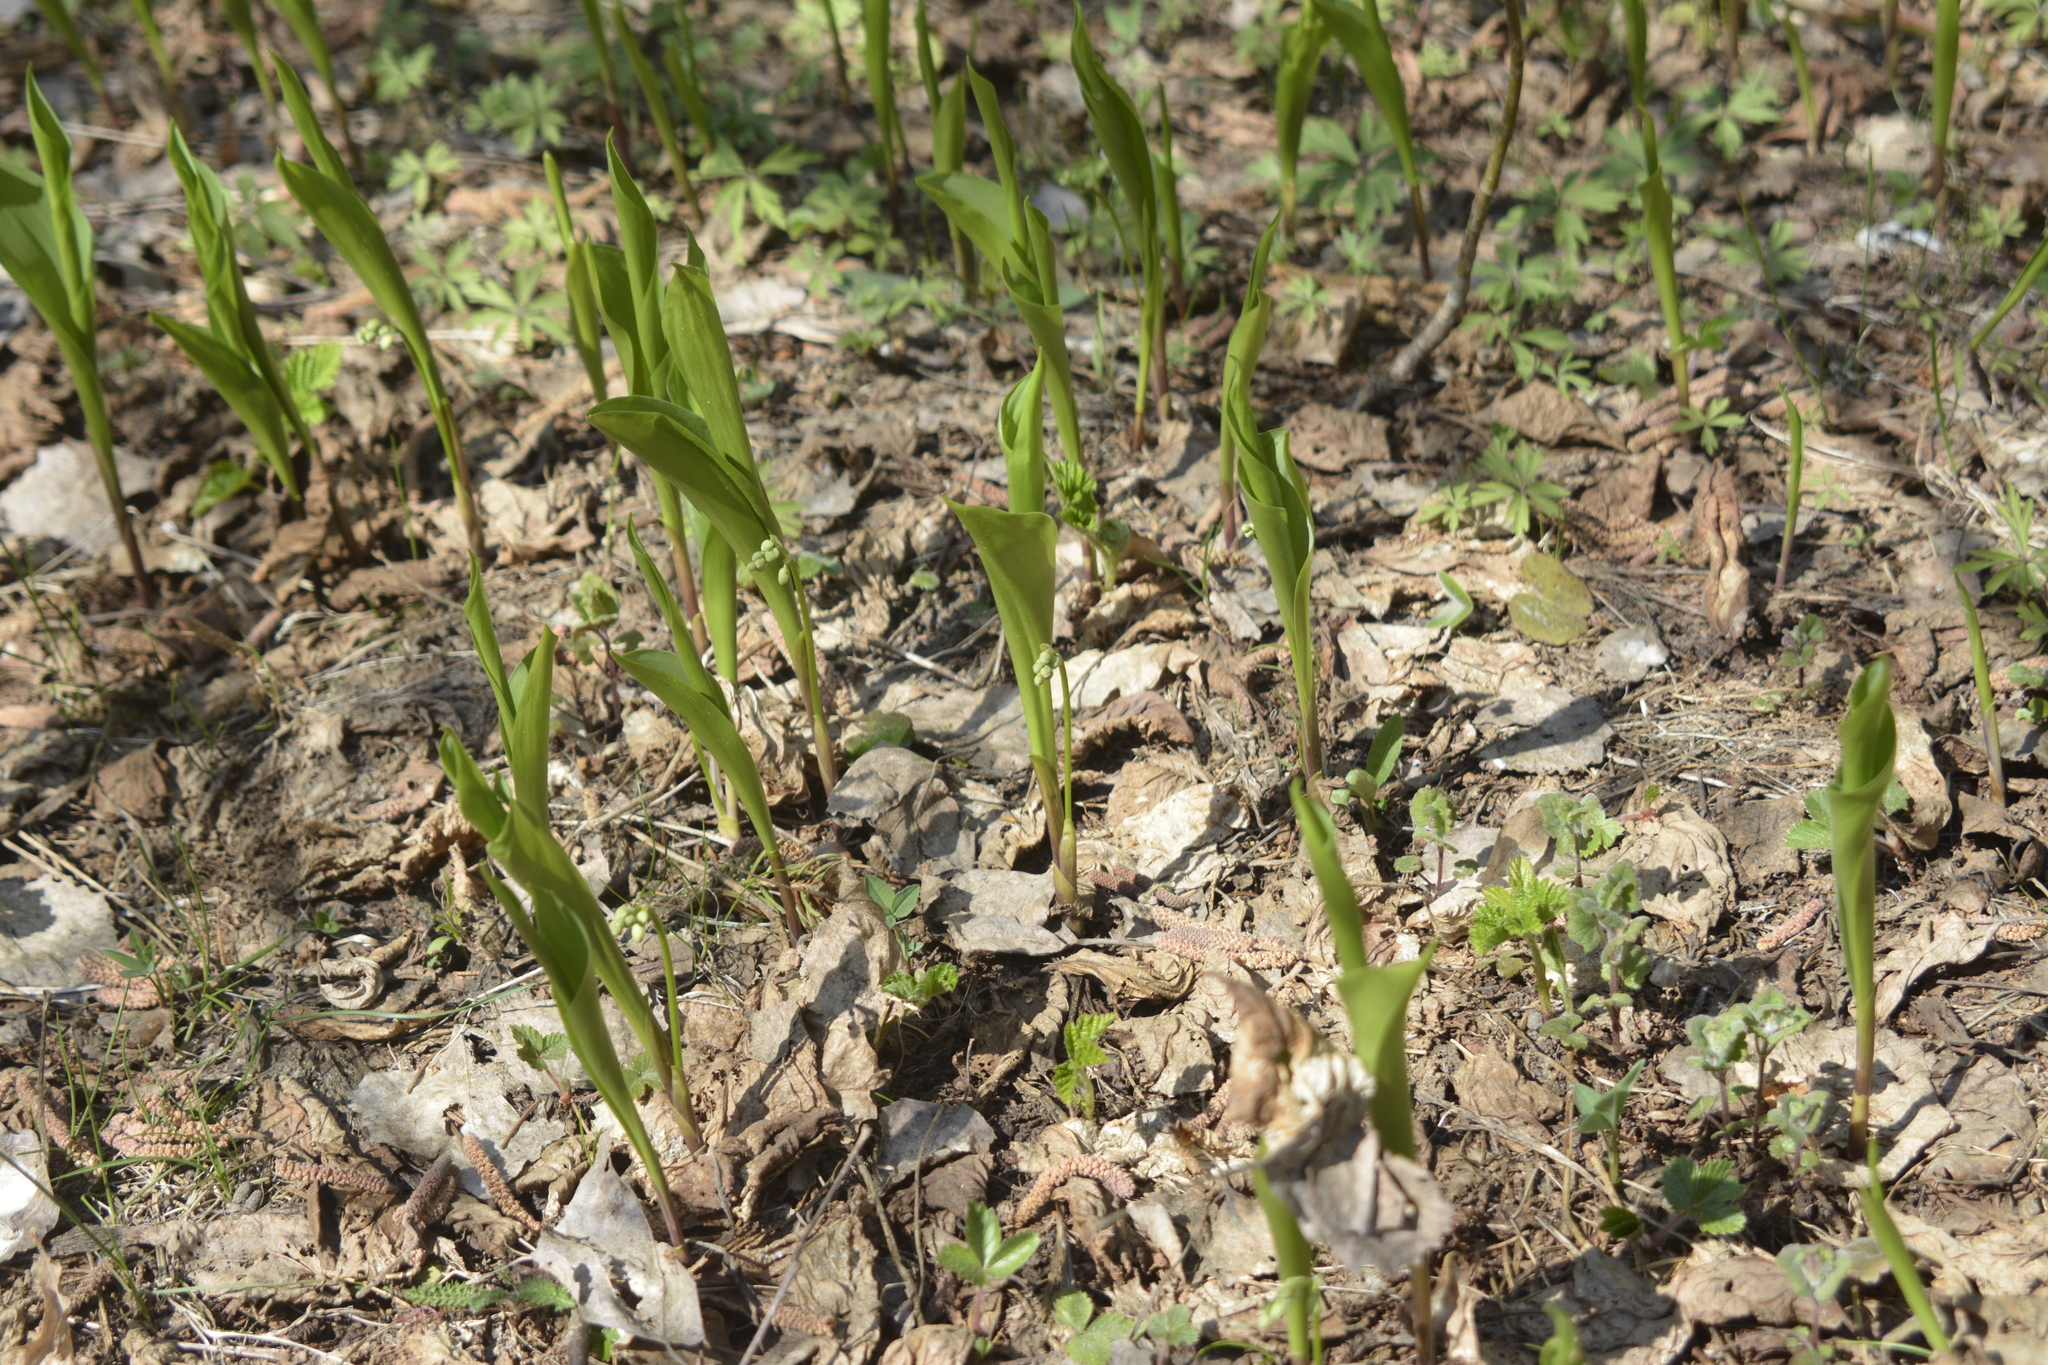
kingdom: Plantae
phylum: Tracheophyta
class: Liliopsida
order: Asparagales
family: Asparagaceae
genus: Convallaria
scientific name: Convallaria majalis
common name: Lily-of-the-valley
